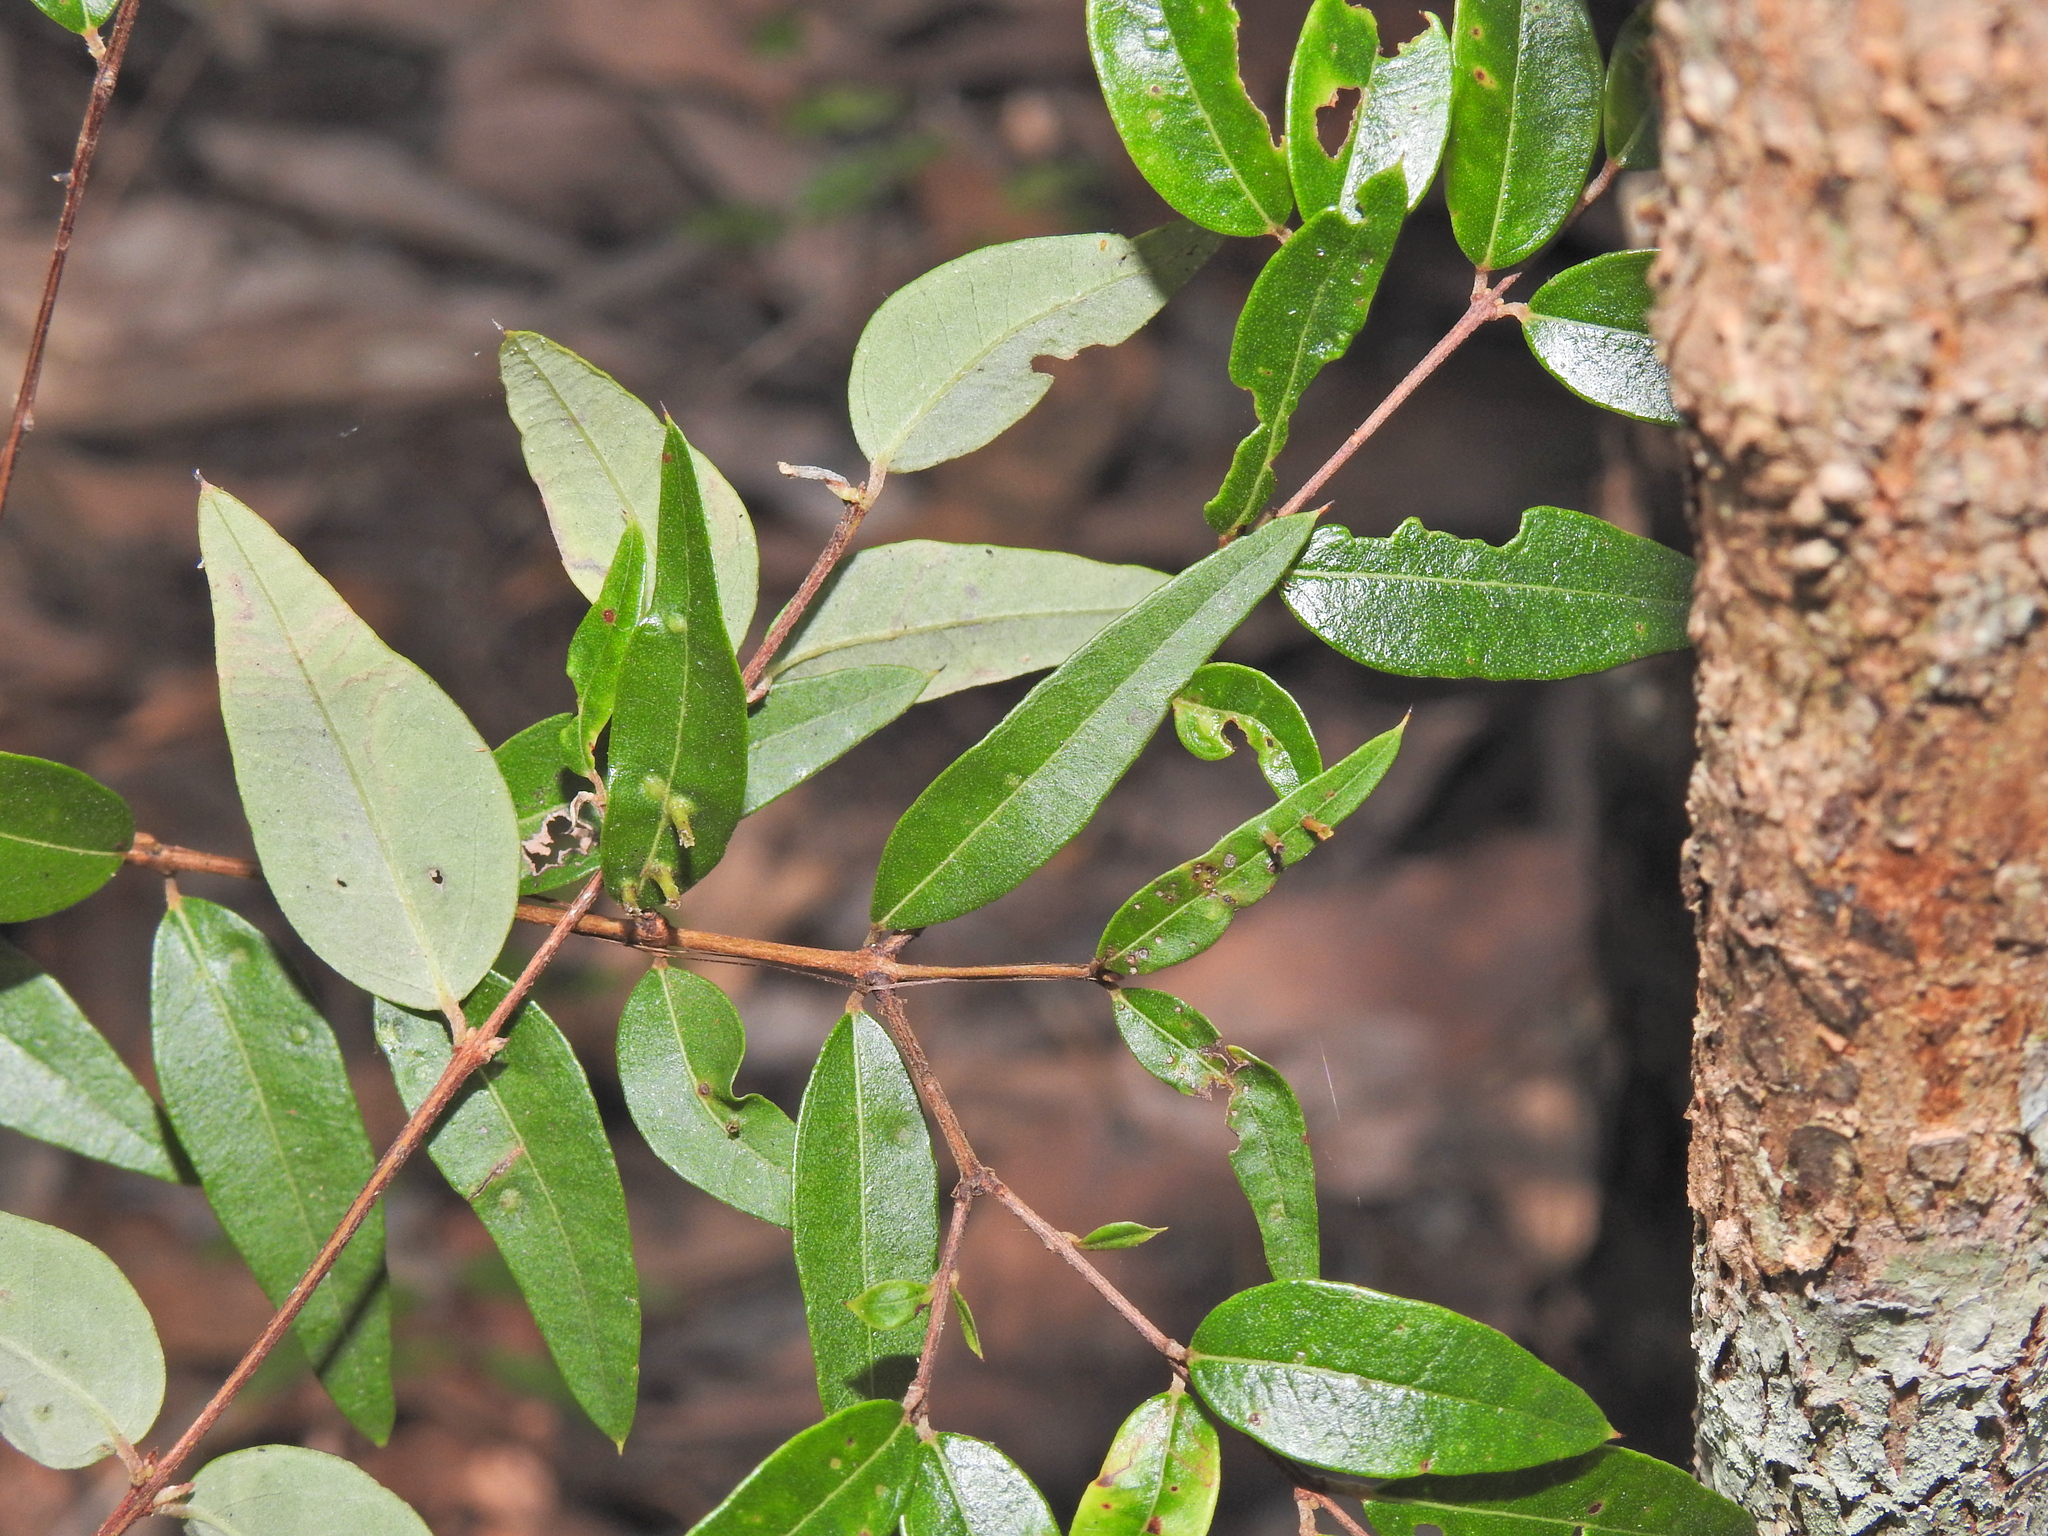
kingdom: Plantae
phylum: Tracheophyta
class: Magnoliopsida
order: Myrtales
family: Myrtaceae
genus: Austromyrtus
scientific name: Austromyrtus dulcis
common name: Migden-berry
